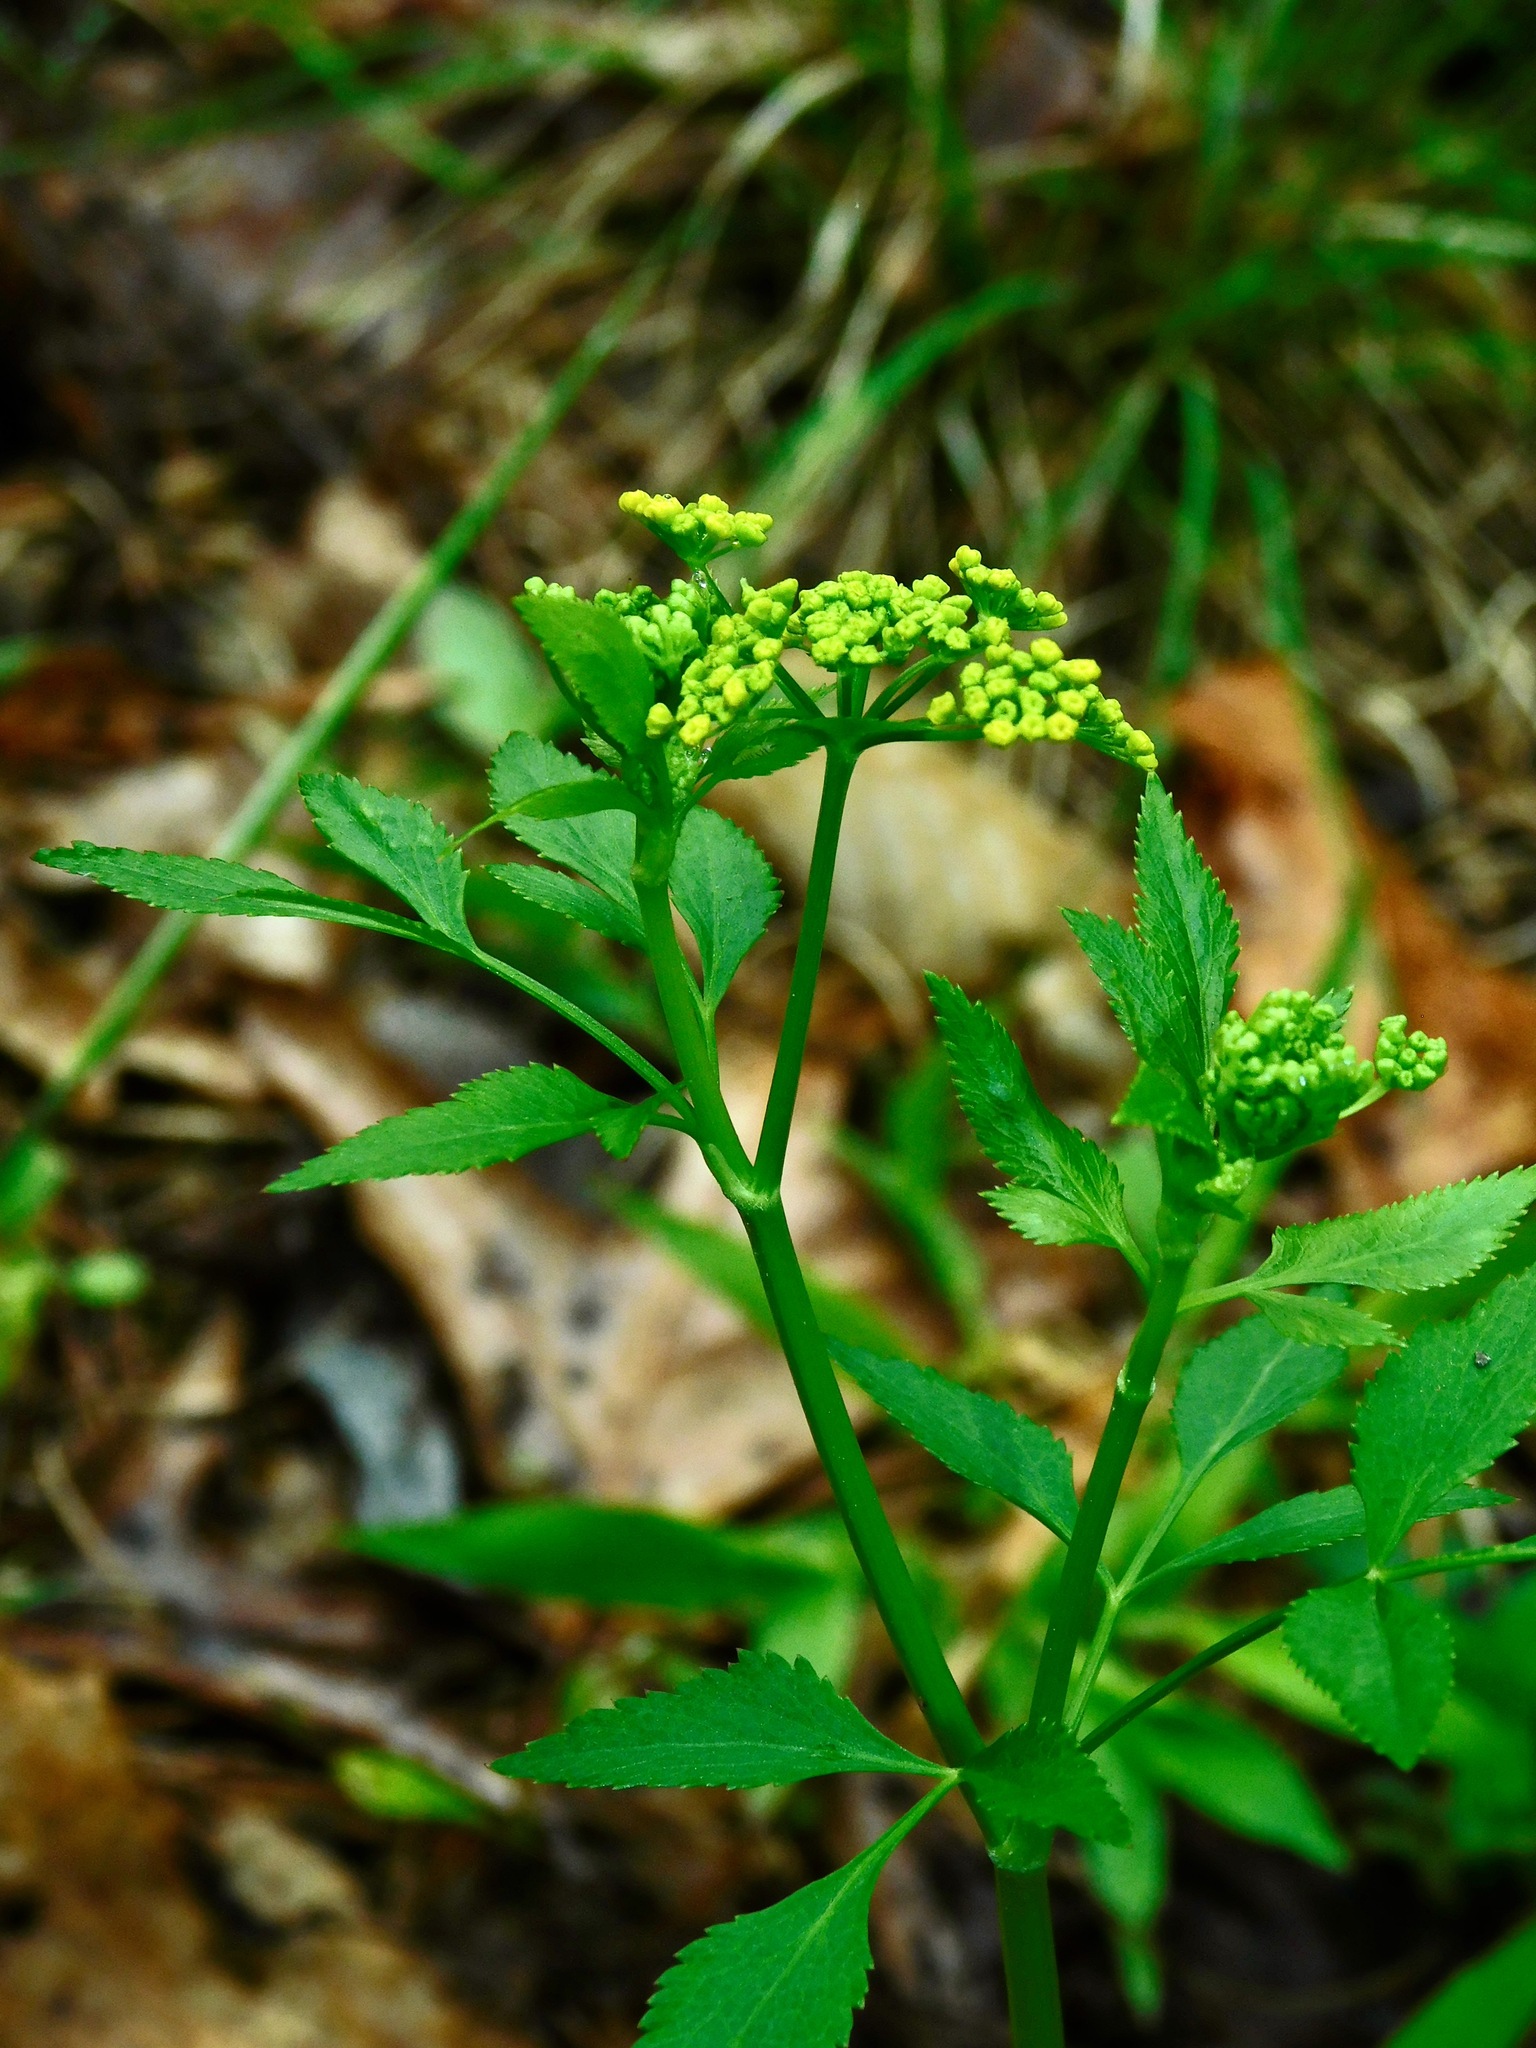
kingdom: Plantae
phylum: Tracheophyta
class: Magnoliopsida
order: Apiales
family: Apiaceae
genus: Zizia
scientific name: Zizia aurea
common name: Golden alexanders
